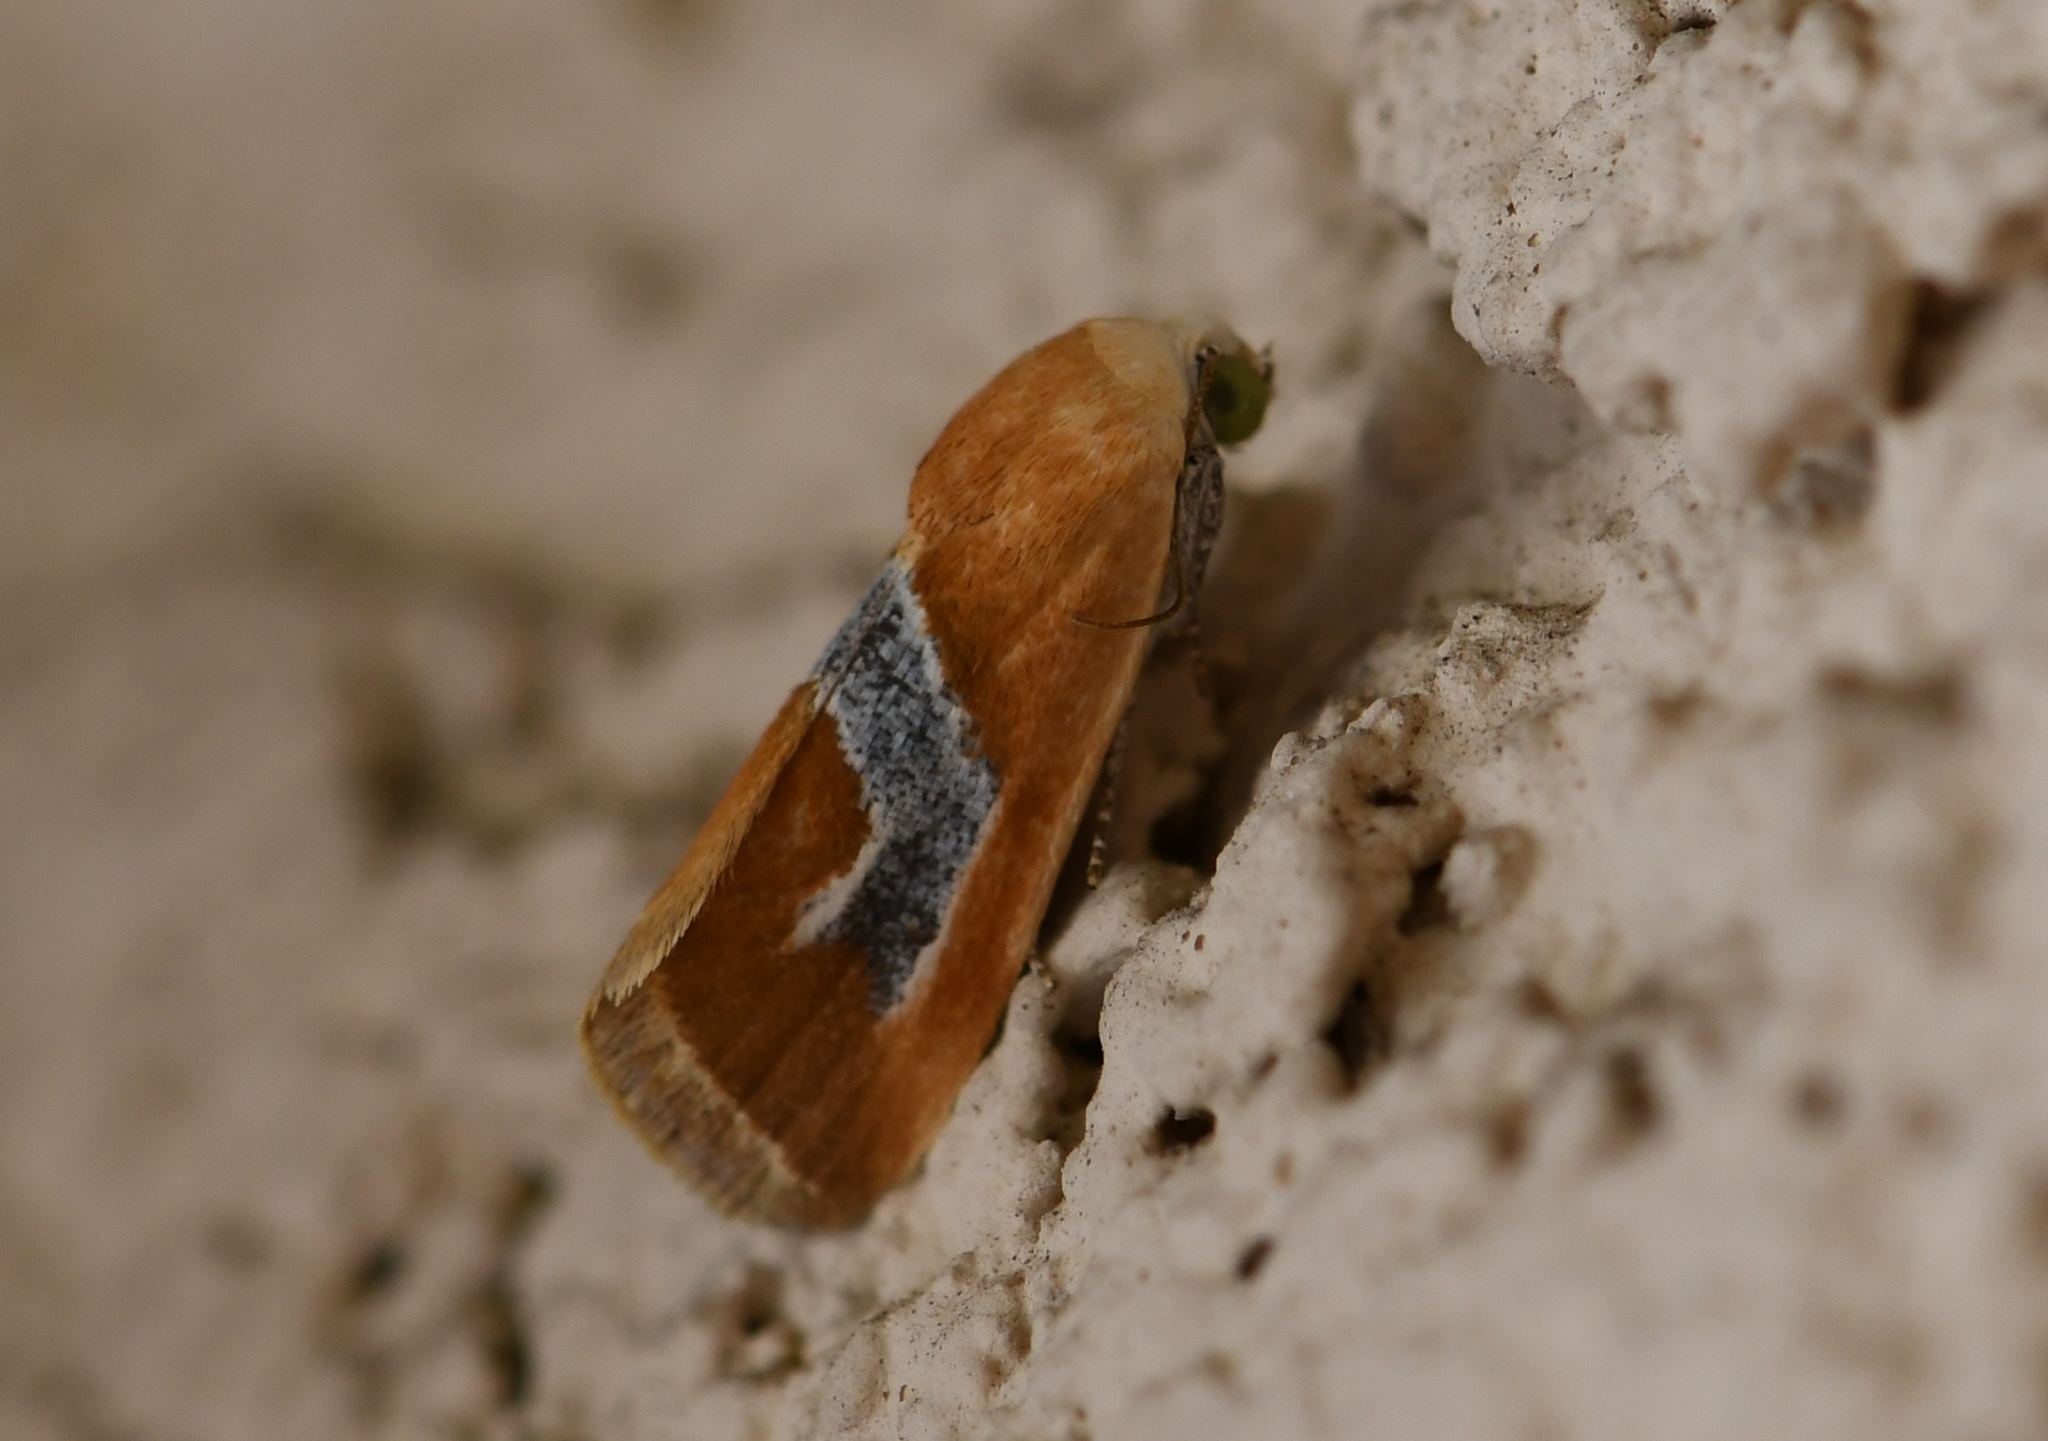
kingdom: Animalia
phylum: Arthropoda
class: Insecta
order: Lepidoptera
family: Noctuidae
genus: Ponometia
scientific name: Ponometia venustula
